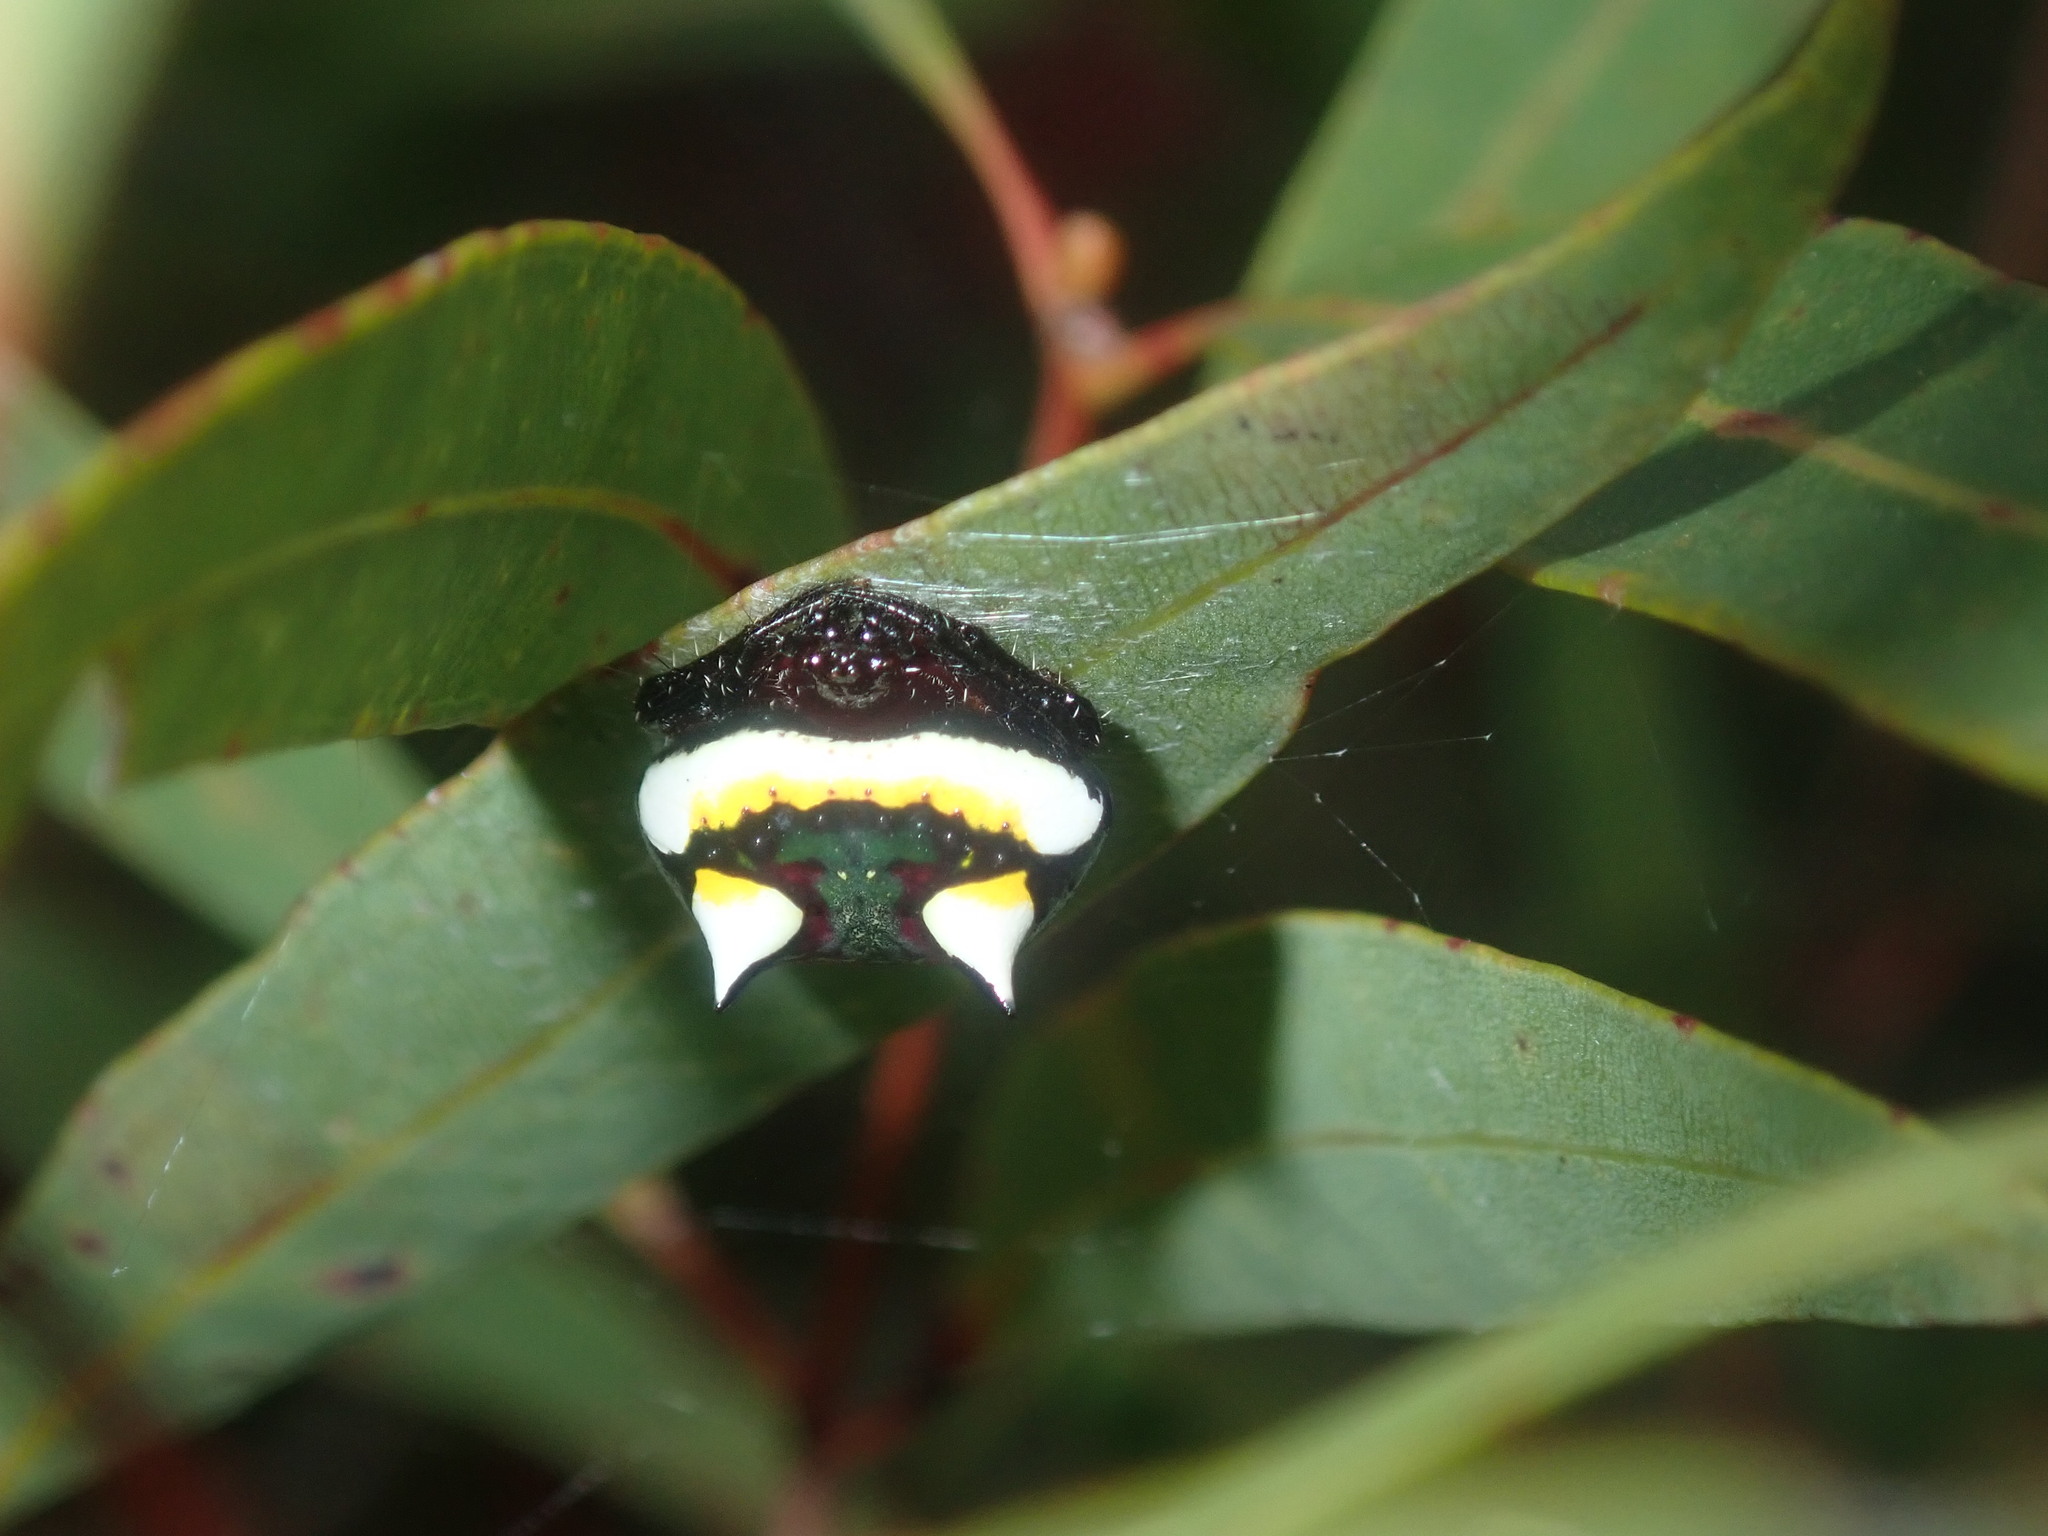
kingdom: Animalia
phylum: Arthropoda
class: Arachnida
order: Araneae
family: Araneidae
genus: Poecilopachys
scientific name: Poecilopachys australasia
